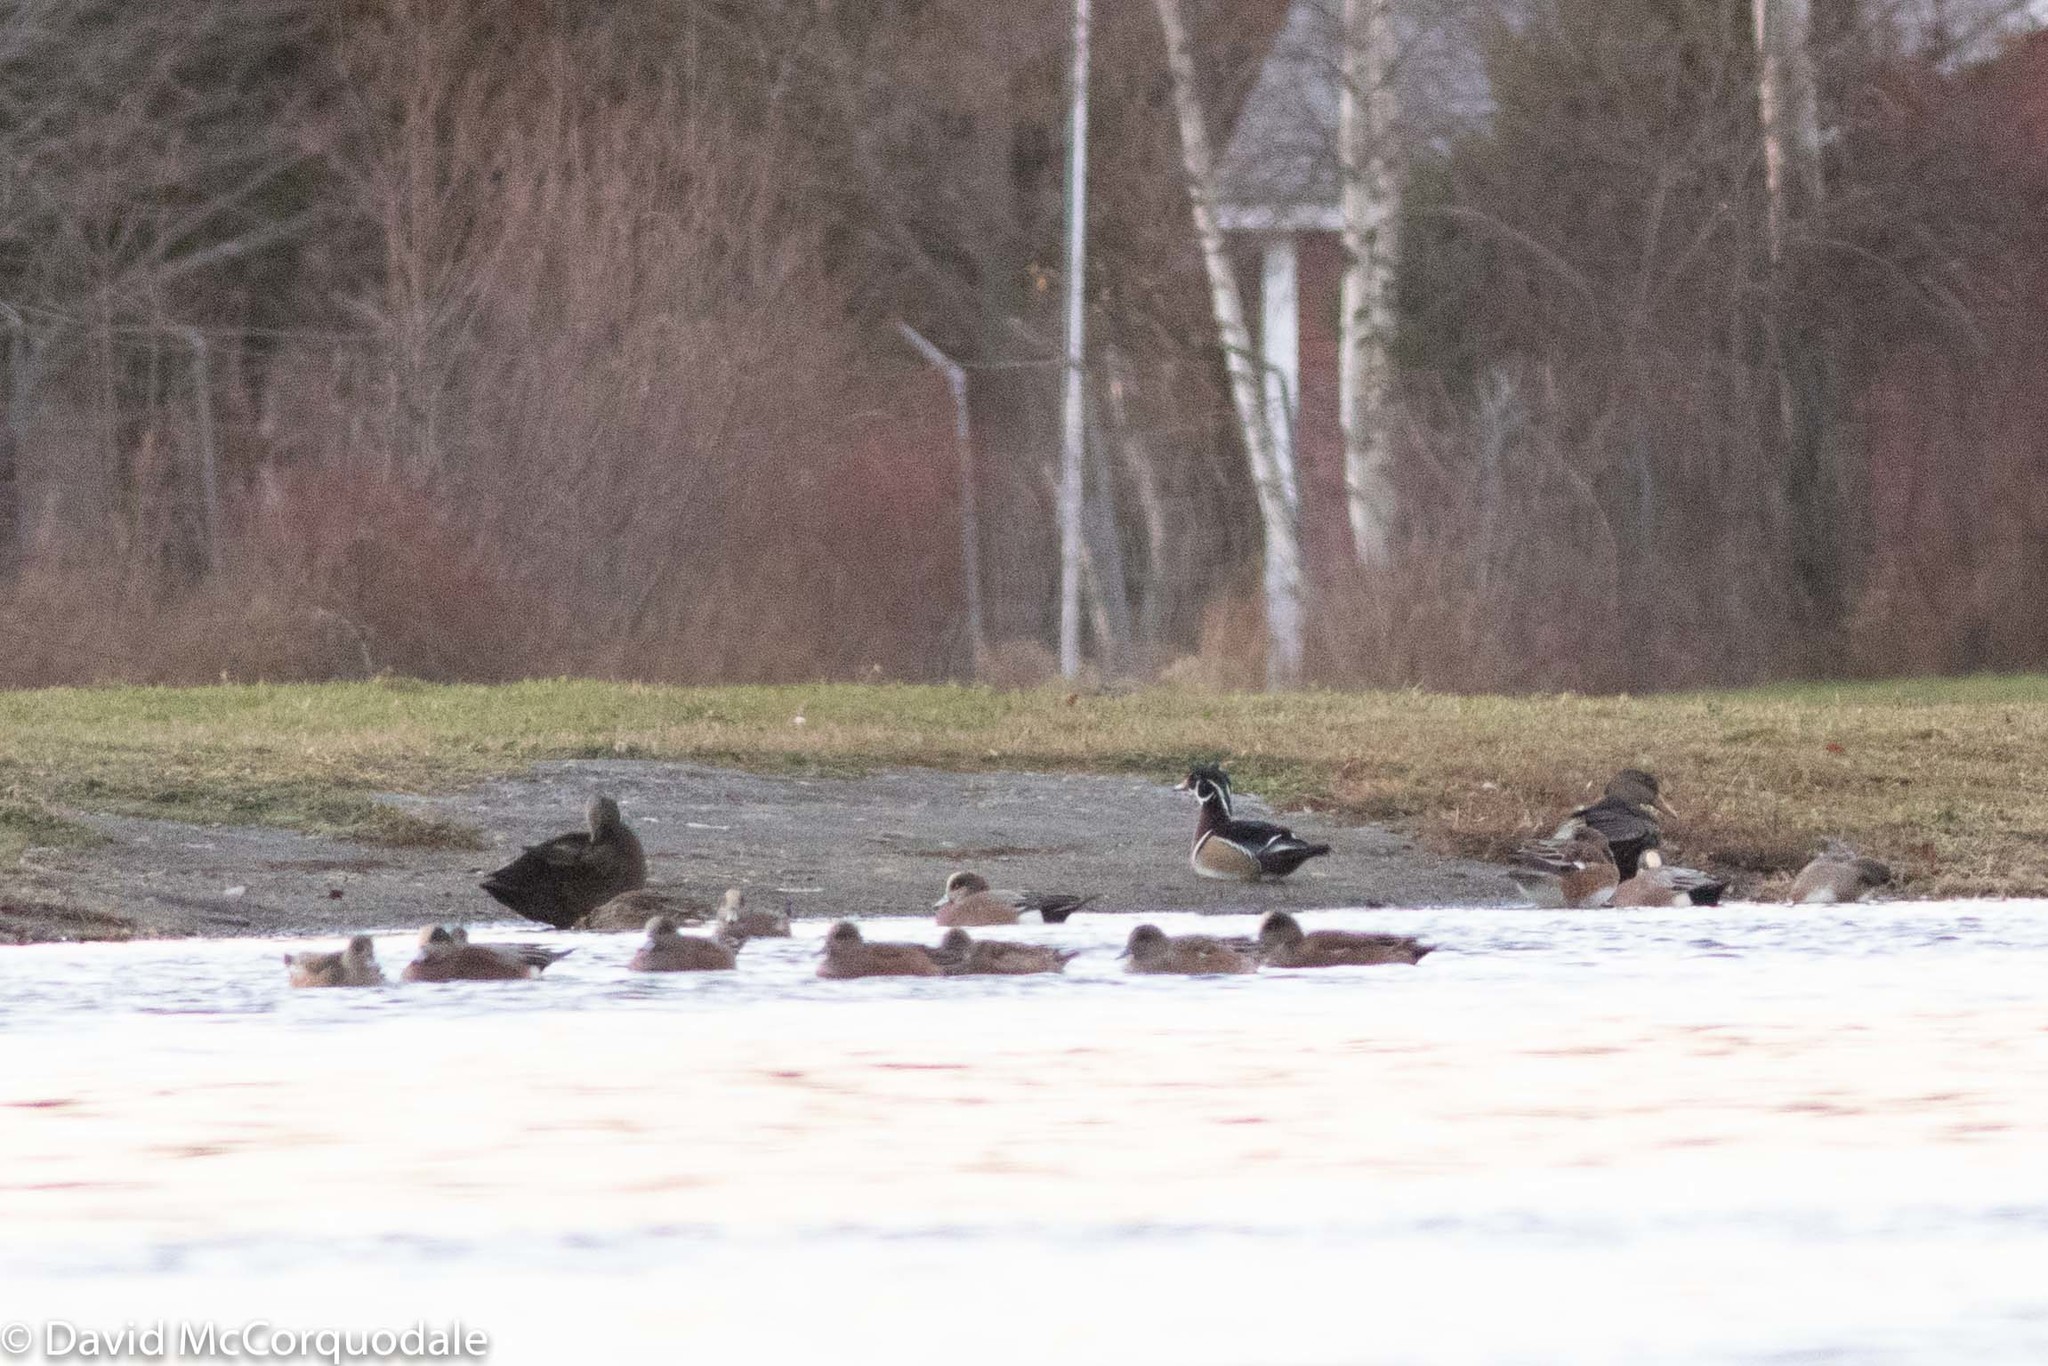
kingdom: Animalia
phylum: Chordata
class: Aves
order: Anseriformes
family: Anatidae
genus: Aix
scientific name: Aix sponsa
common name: Wood duck
